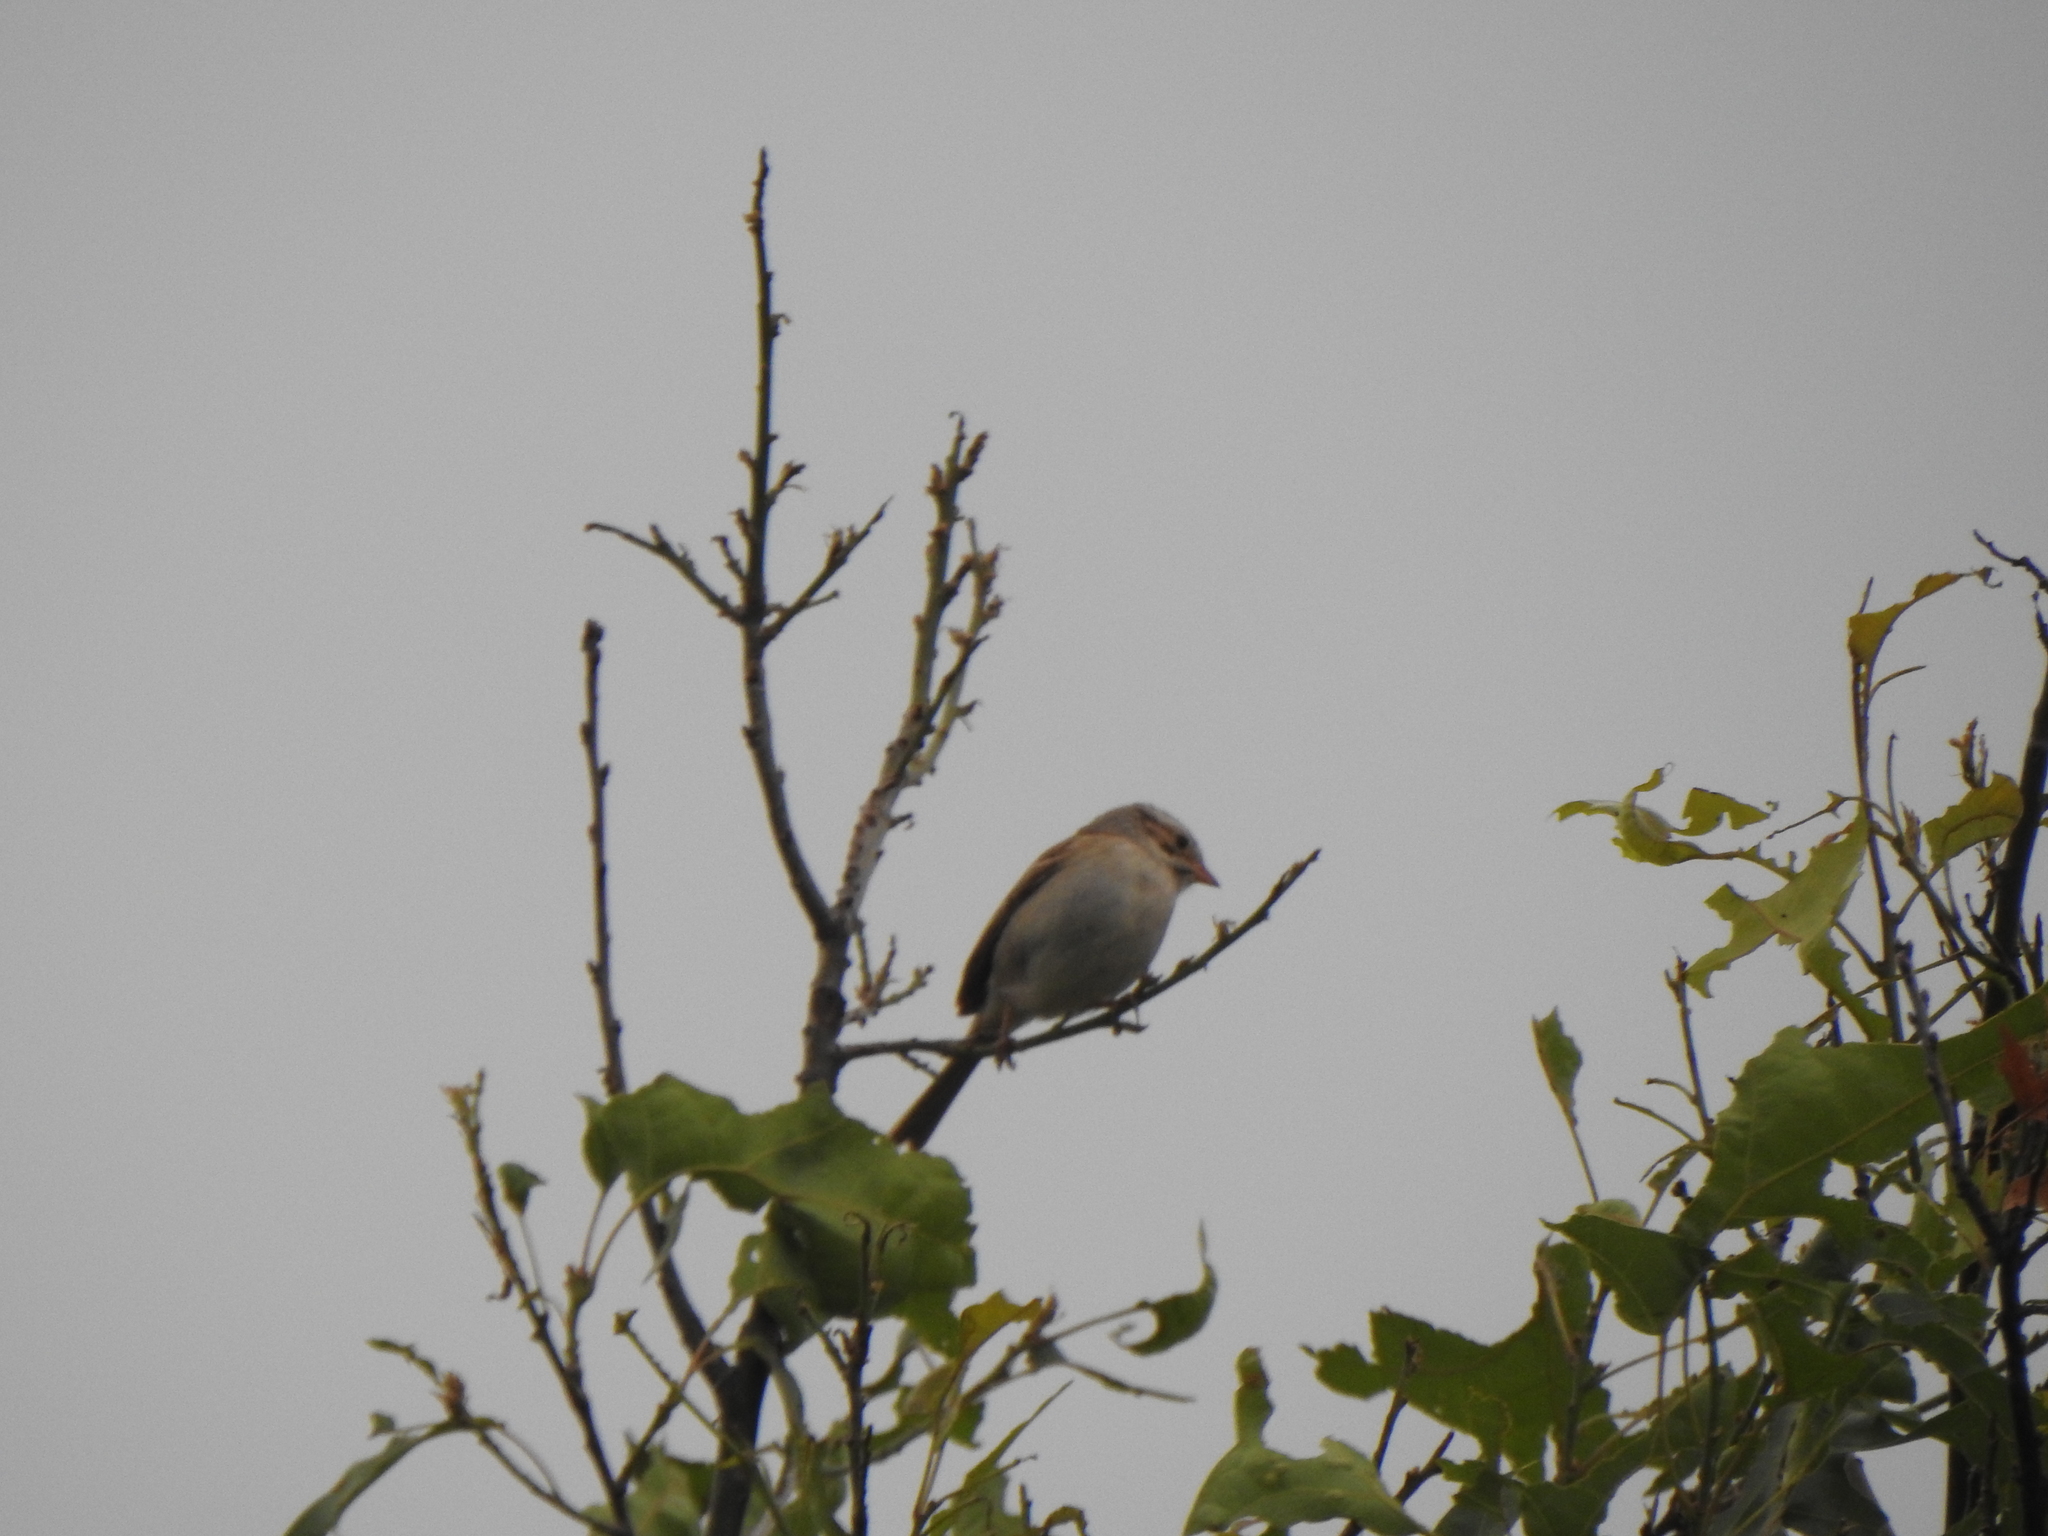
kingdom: Animalia
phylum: Chordata
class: Aves
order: Passeriformes
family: Passerellidae
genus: Spizella
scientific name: Spizella pallida
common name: Clay-colored sparrow
